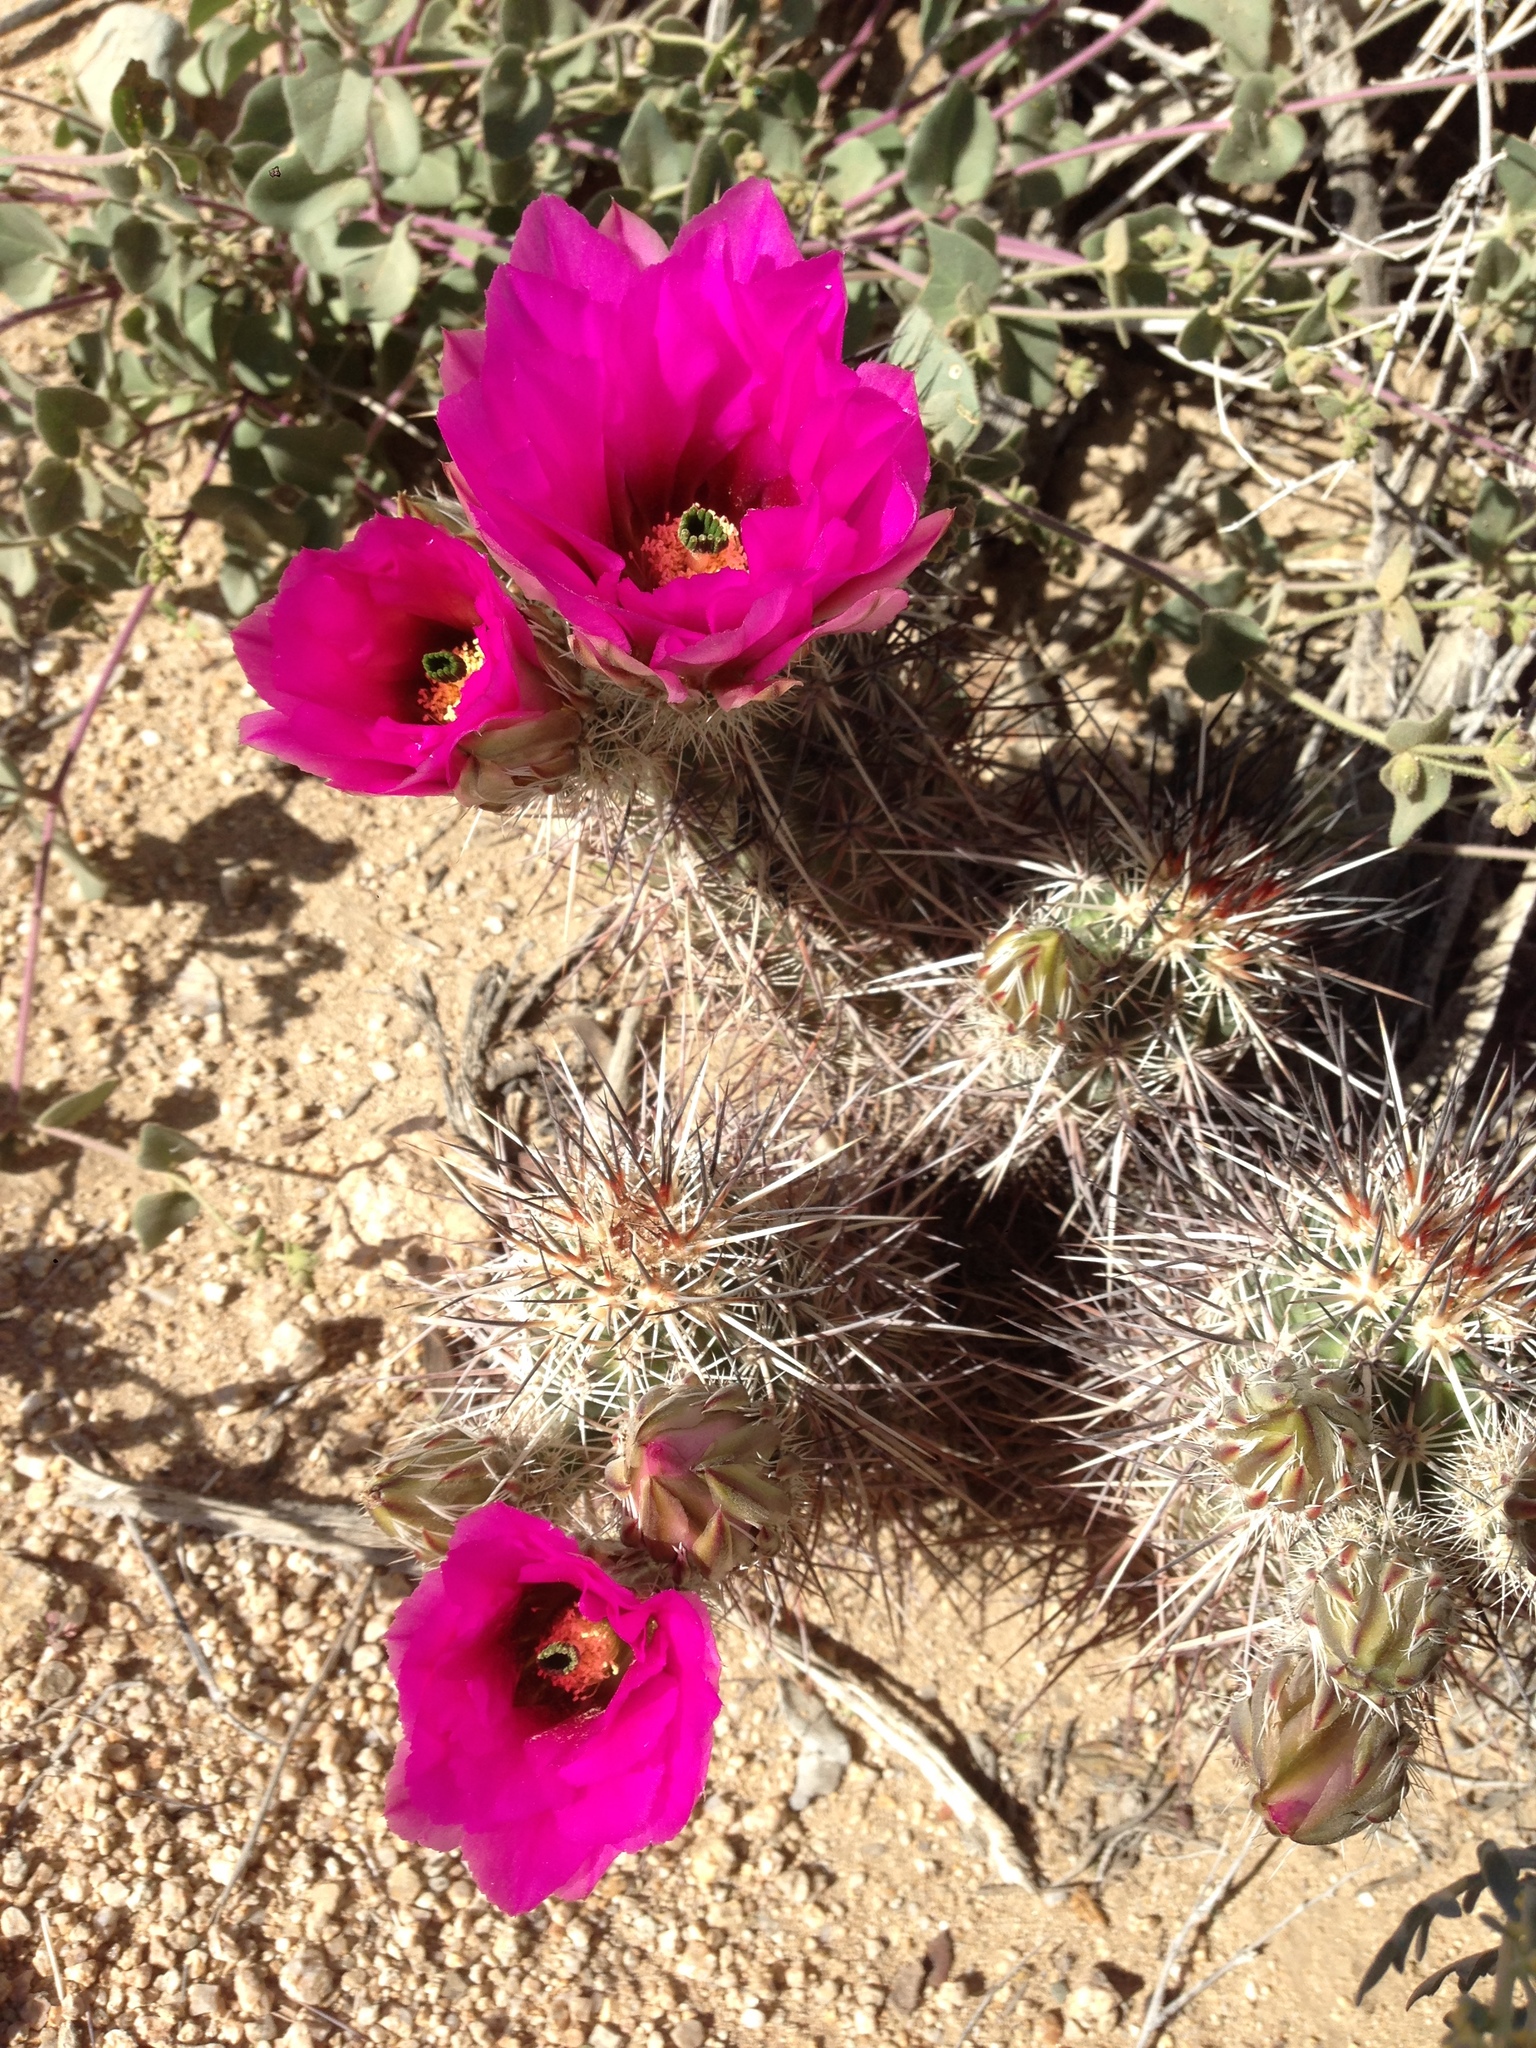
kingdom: Plantae
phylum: Tracheophyta
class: Magnoliopsida
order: Caryophyllales
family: Cactaceae
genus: Echinocereus
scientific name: Echinocereus engelmannii
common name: Engelmann's hedgehog cactus
